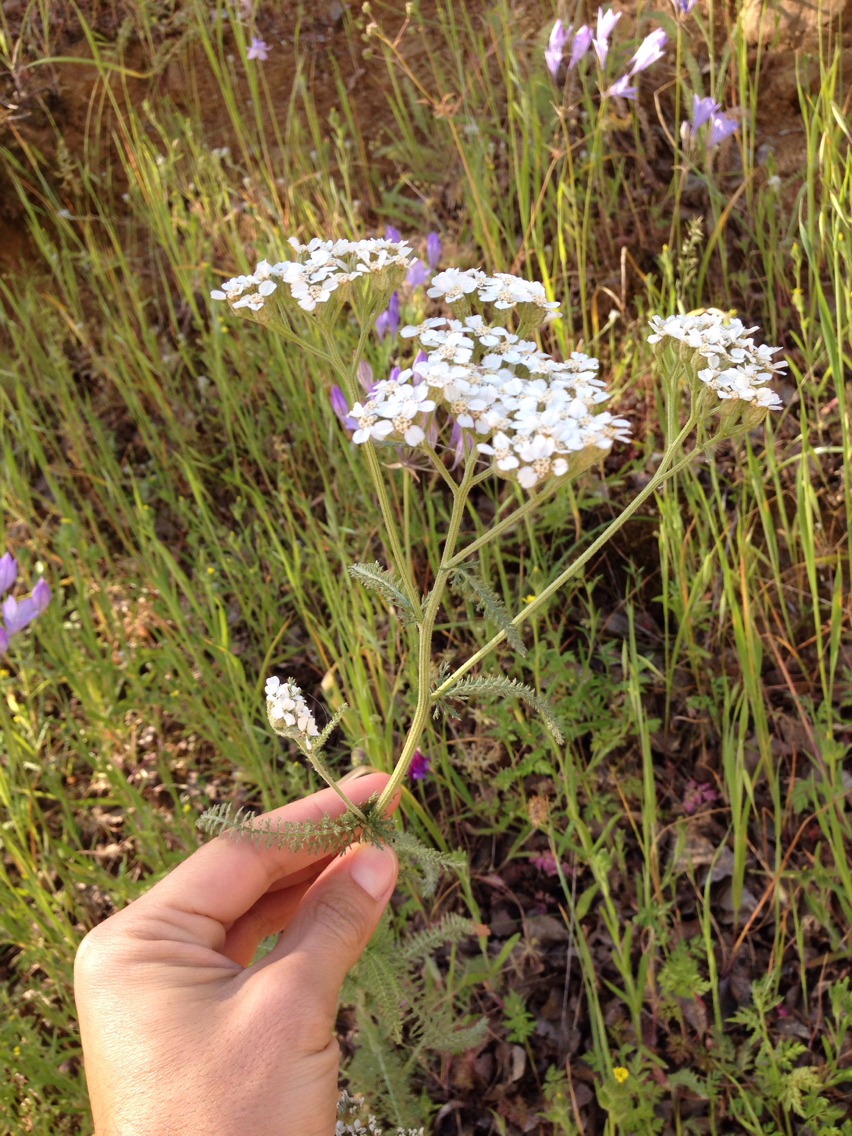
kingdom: Plantae
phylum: Tracheophyta
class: Magnoliopsida
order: Asterales
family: Asteraceae
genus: Achillea
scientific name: Achillea millefolium
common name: Yarrow
